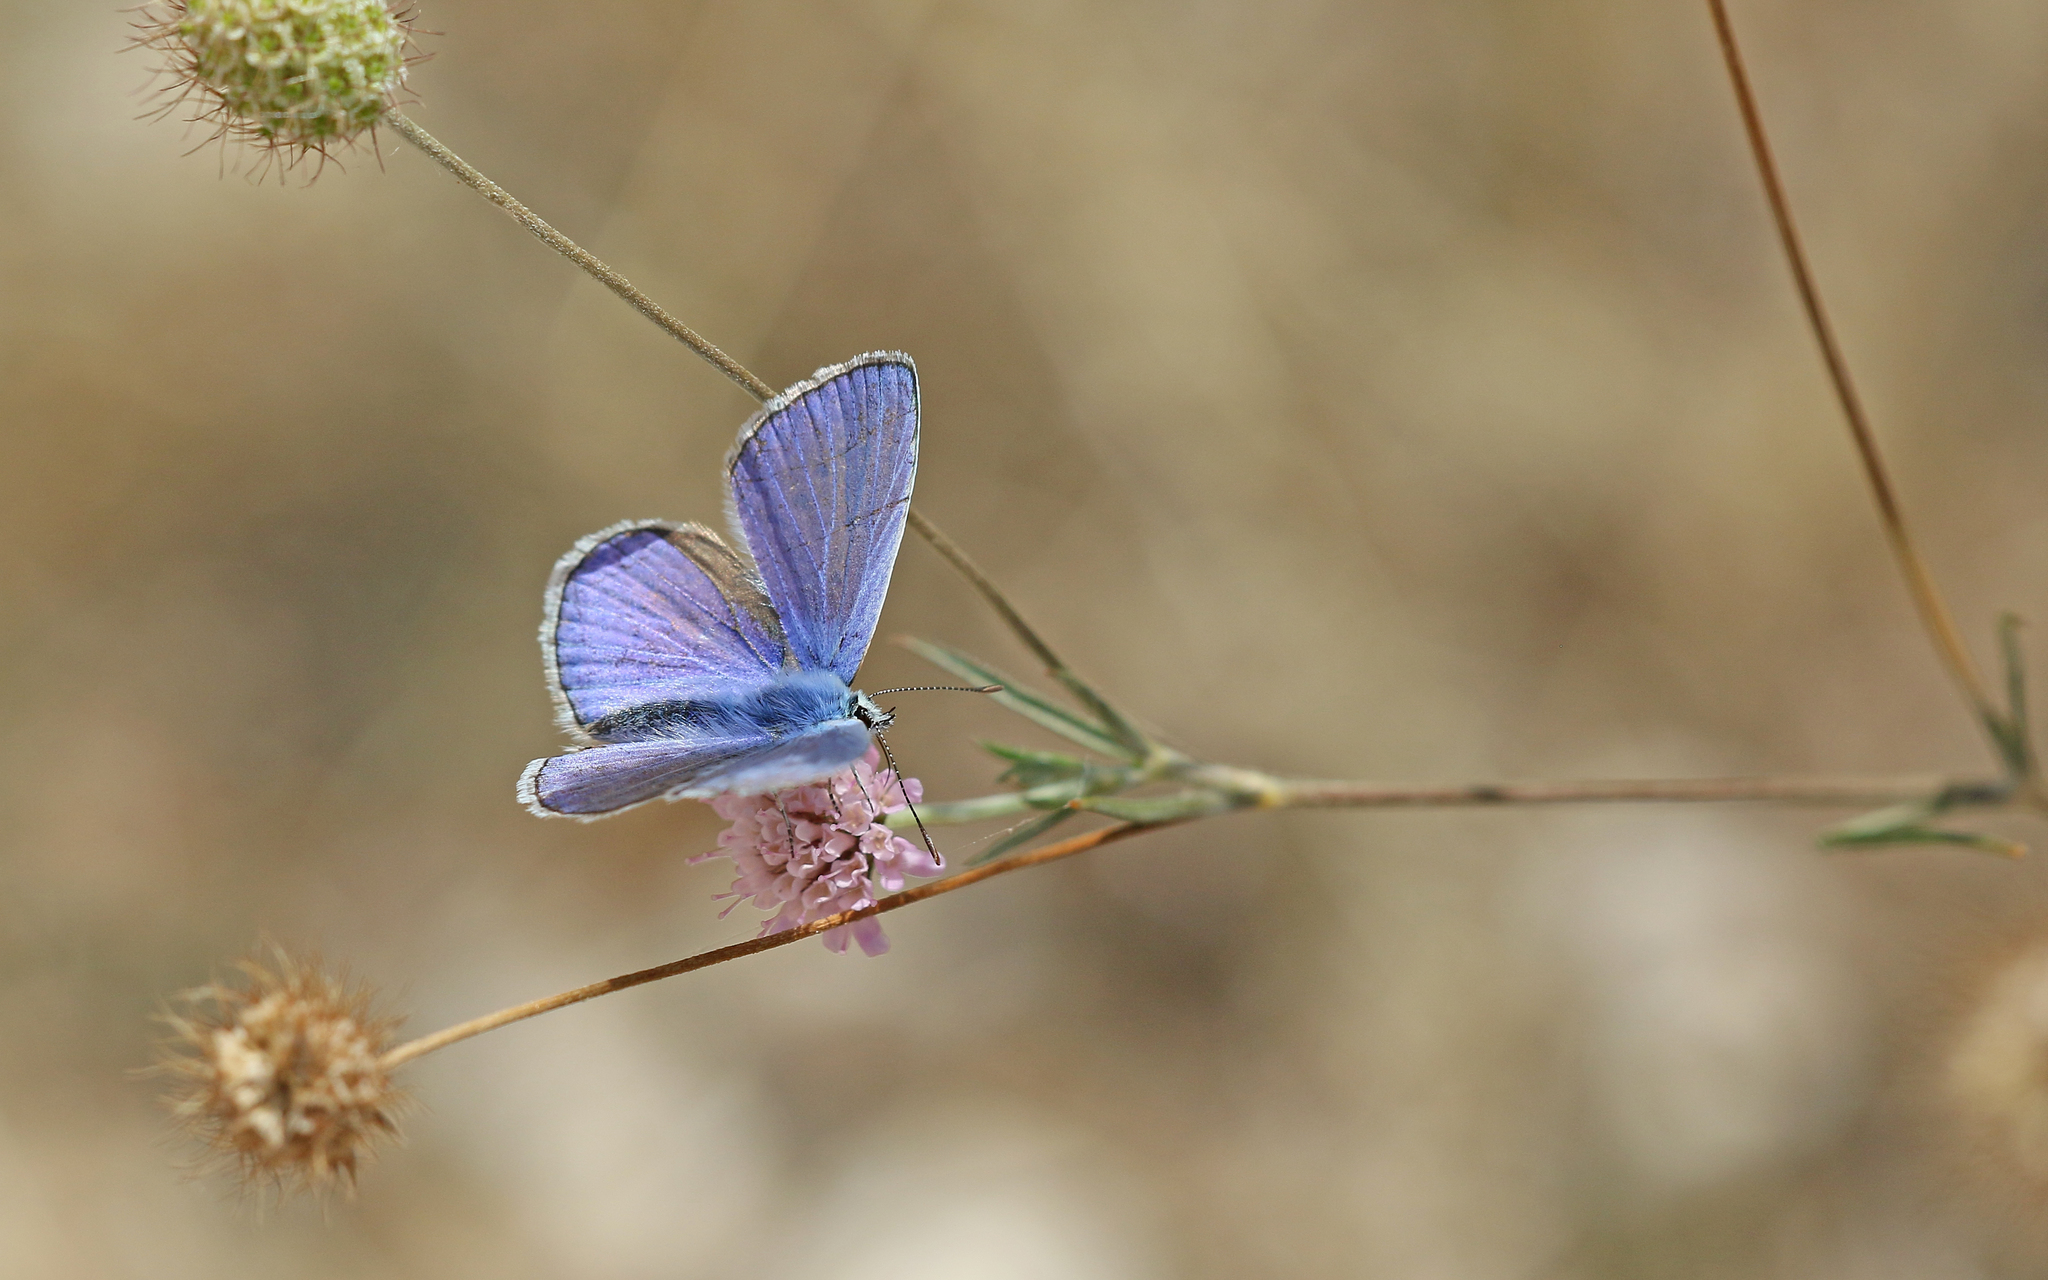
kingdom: Animalia
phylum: Arthropoda
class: Insecta
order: Lepidoptera
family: Lycaenidae
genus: Polyommatus
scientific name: Polyommatus icarus
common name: Common blue
